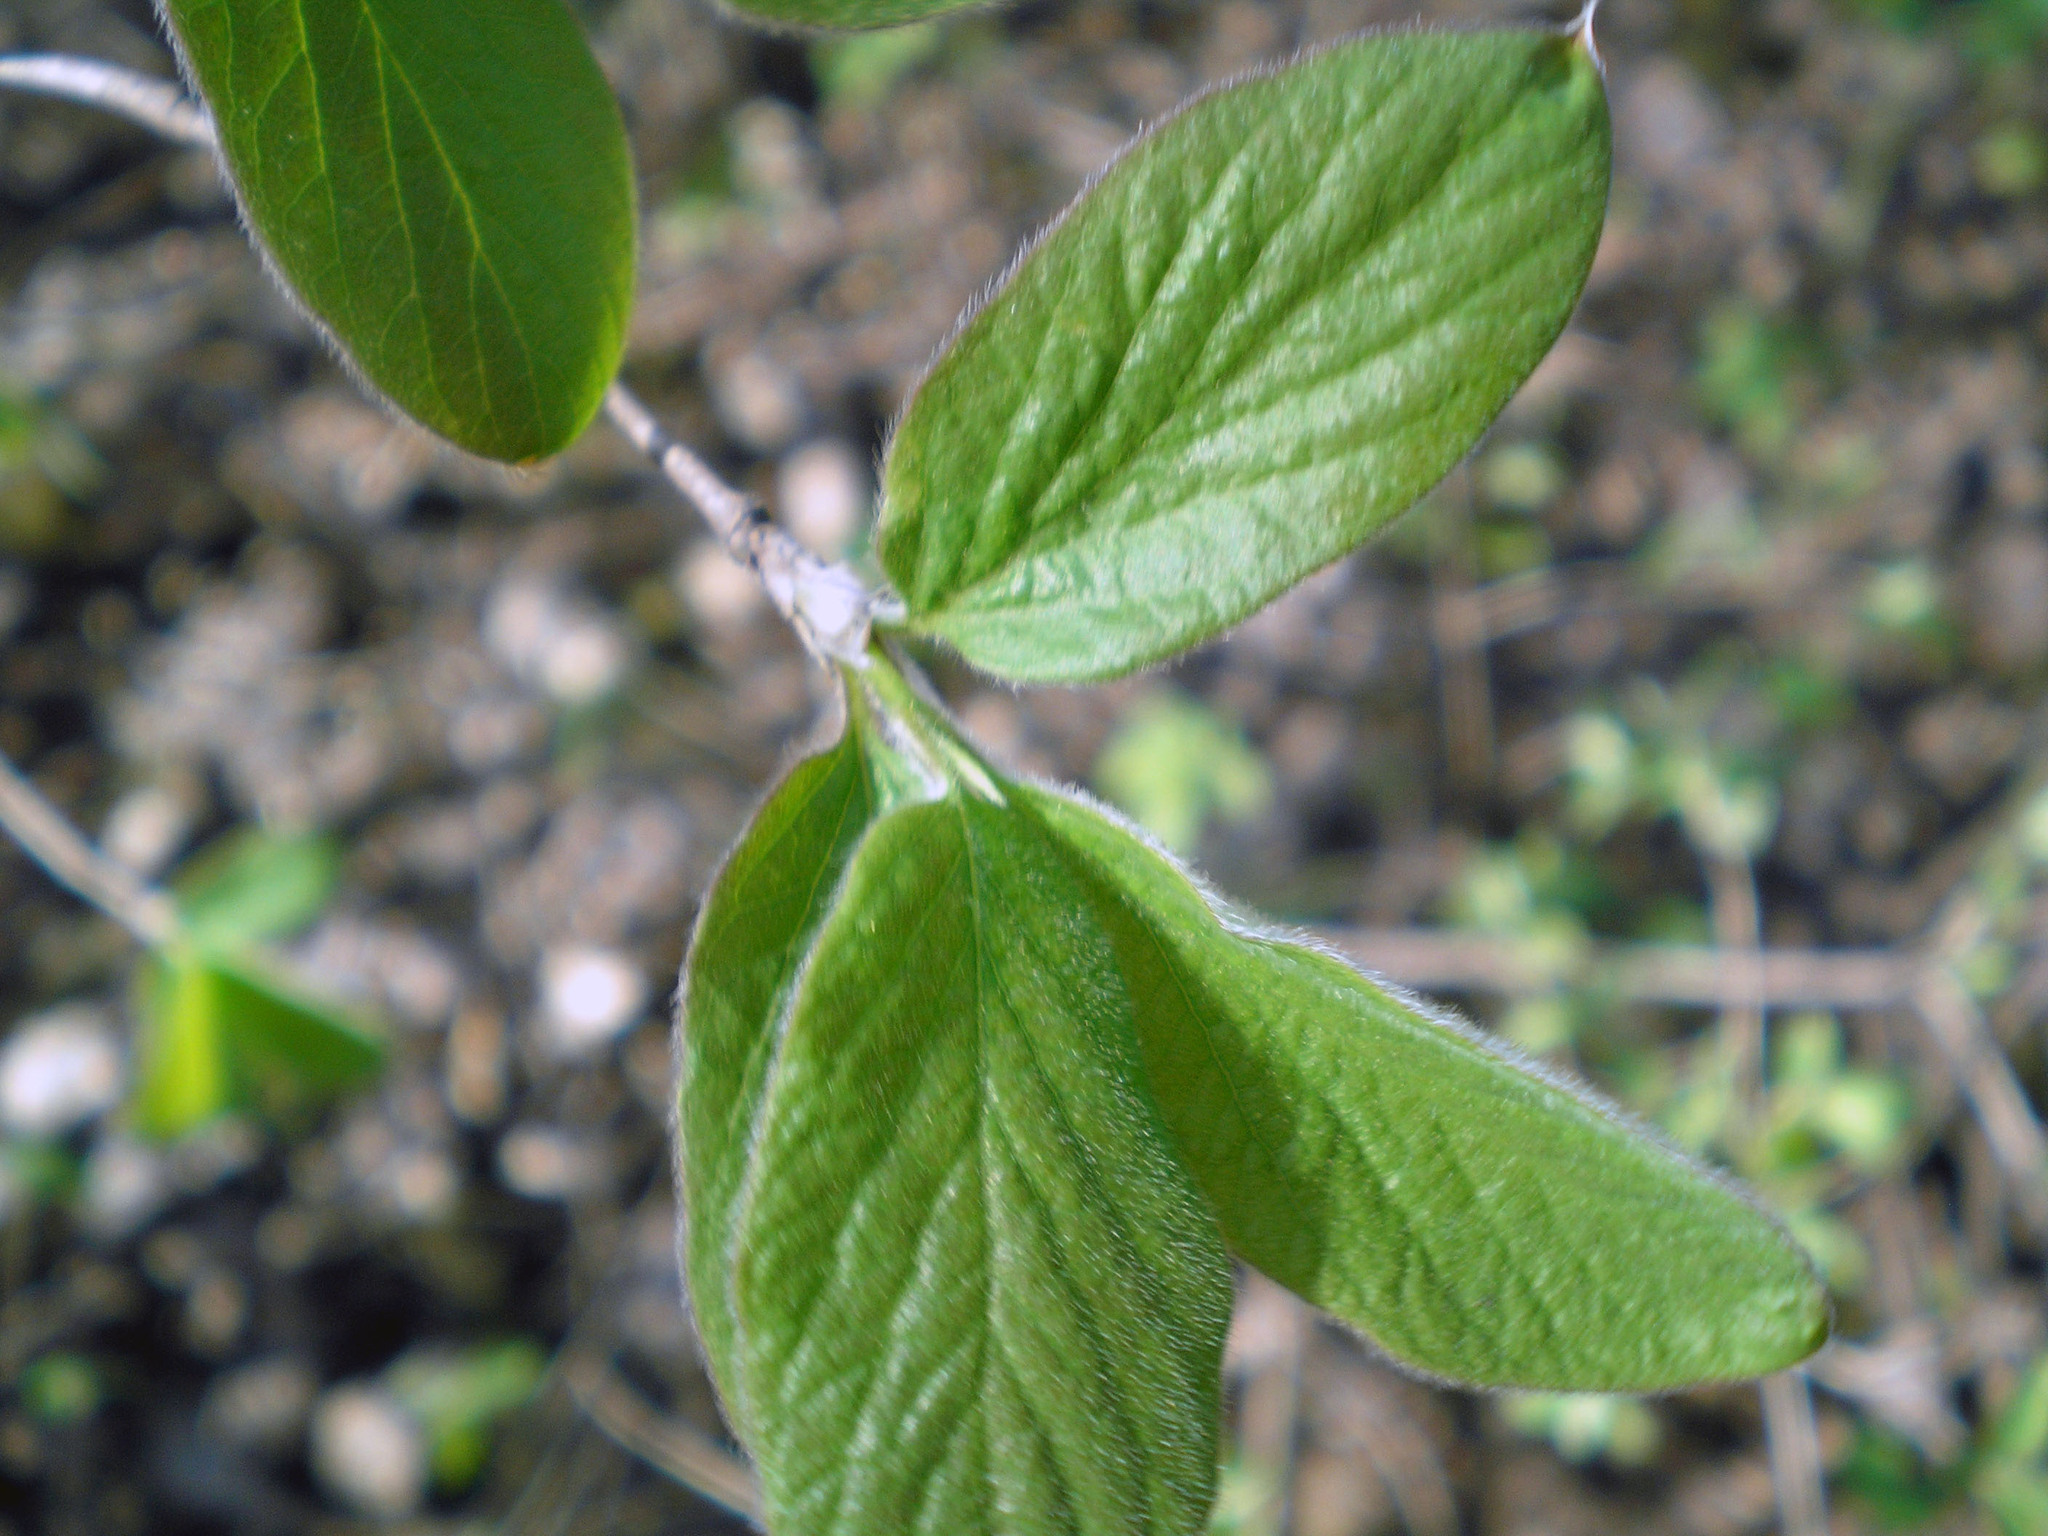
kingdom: Plantae
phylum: Tracheophyta
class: Magnoliopsida
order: Dipsacales
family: Caprifoliaceae
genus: Lonicera
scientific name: Lonicera xylosteum
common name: Fly honeysuckle
